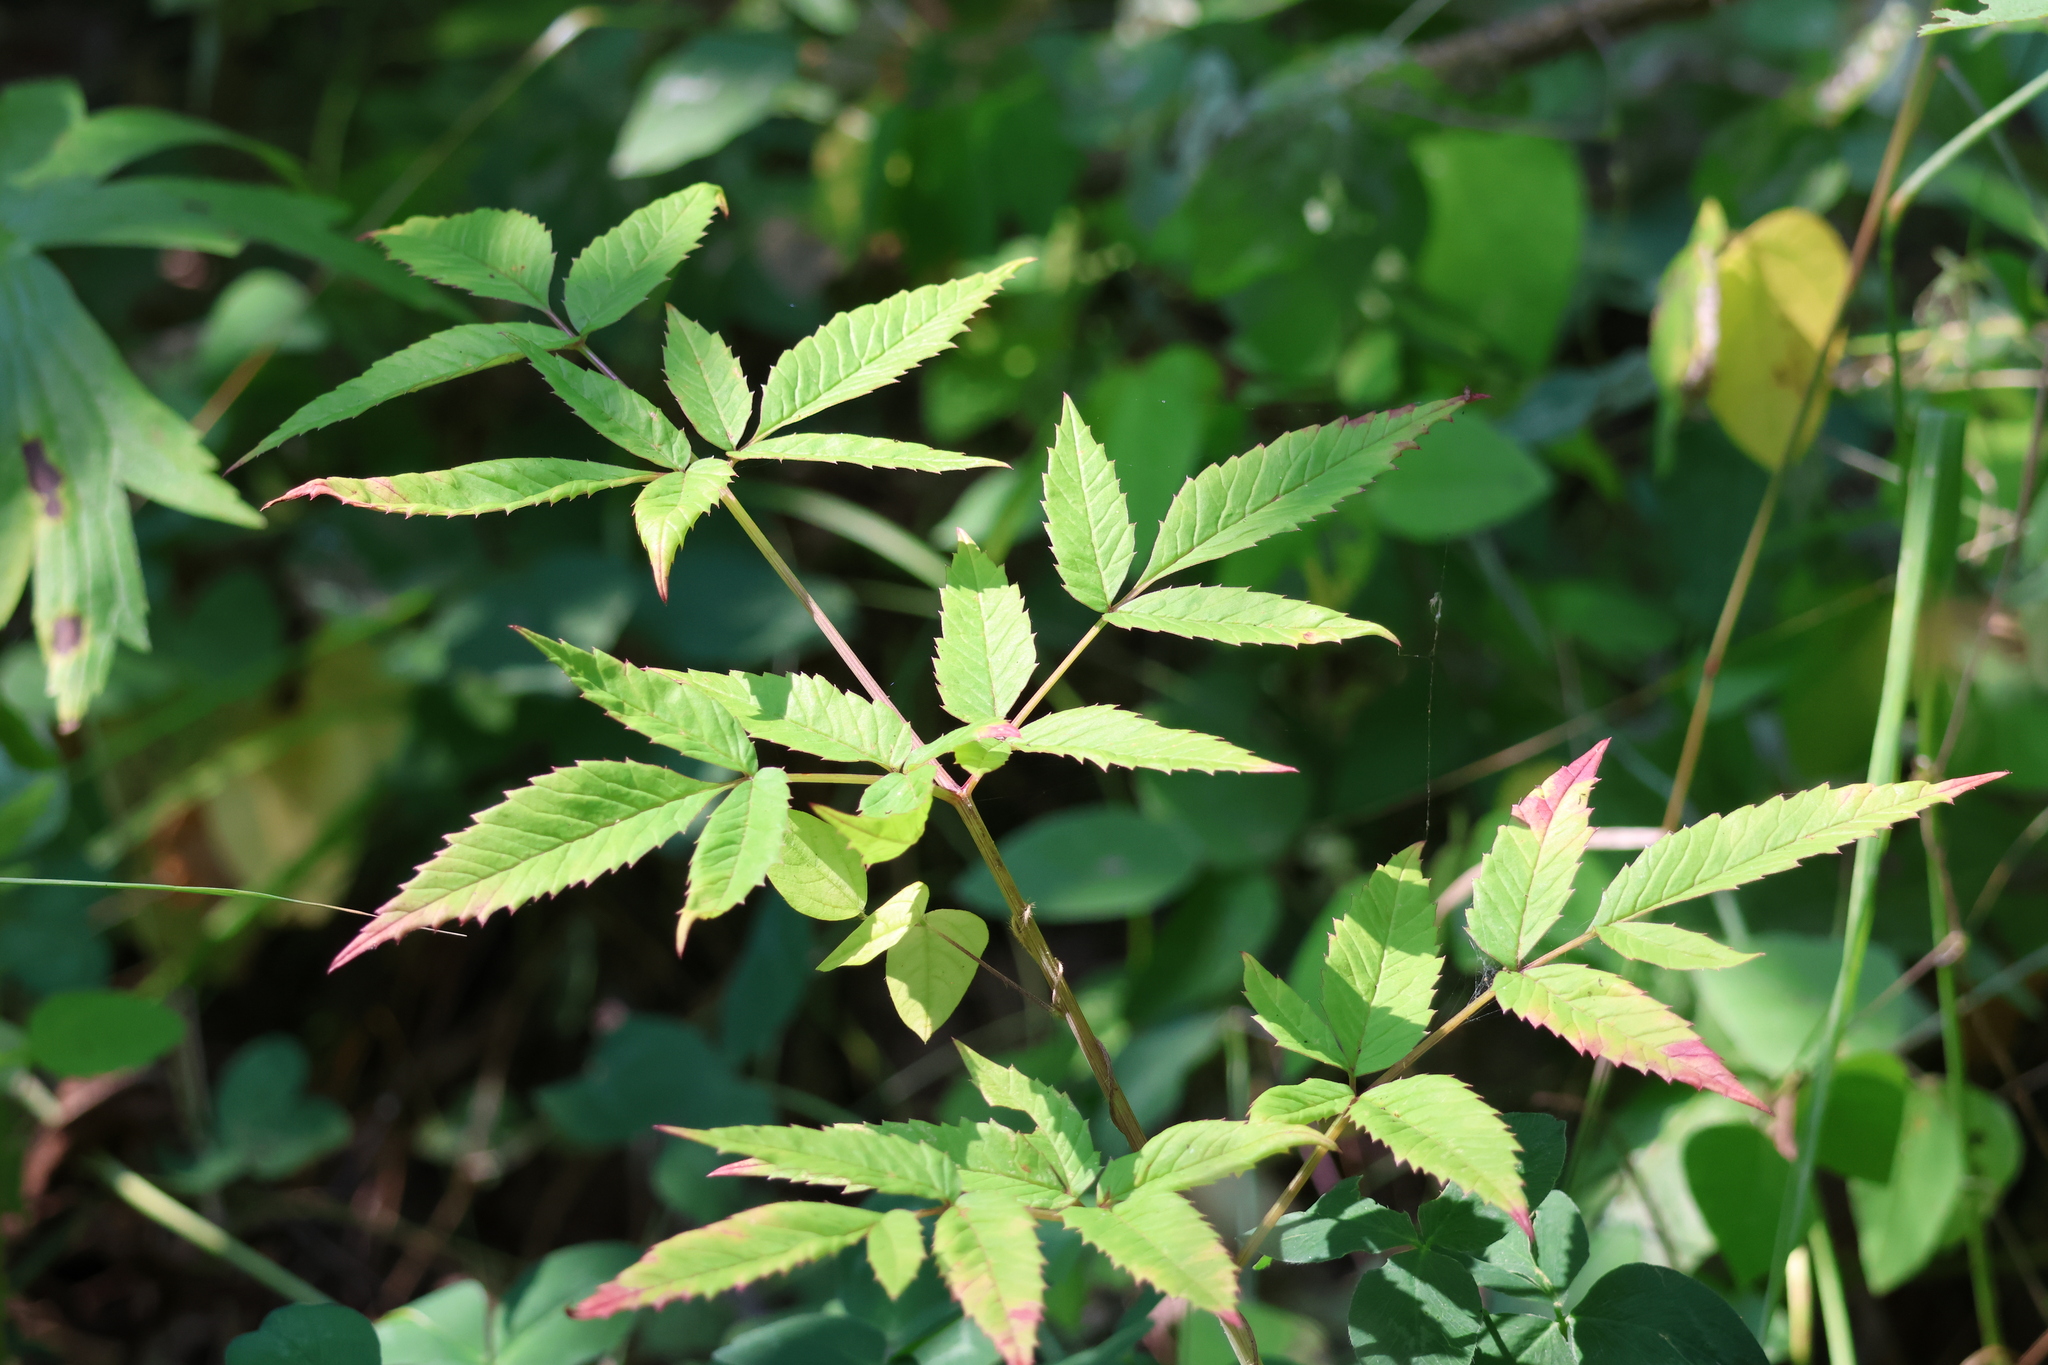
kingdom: Plantae
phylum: Tracheophyta
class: Magnoliopsida
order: Apiales
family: Apiaceae
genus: Cicuta
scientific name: Cicuta maculata
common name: Spotted cowbane
